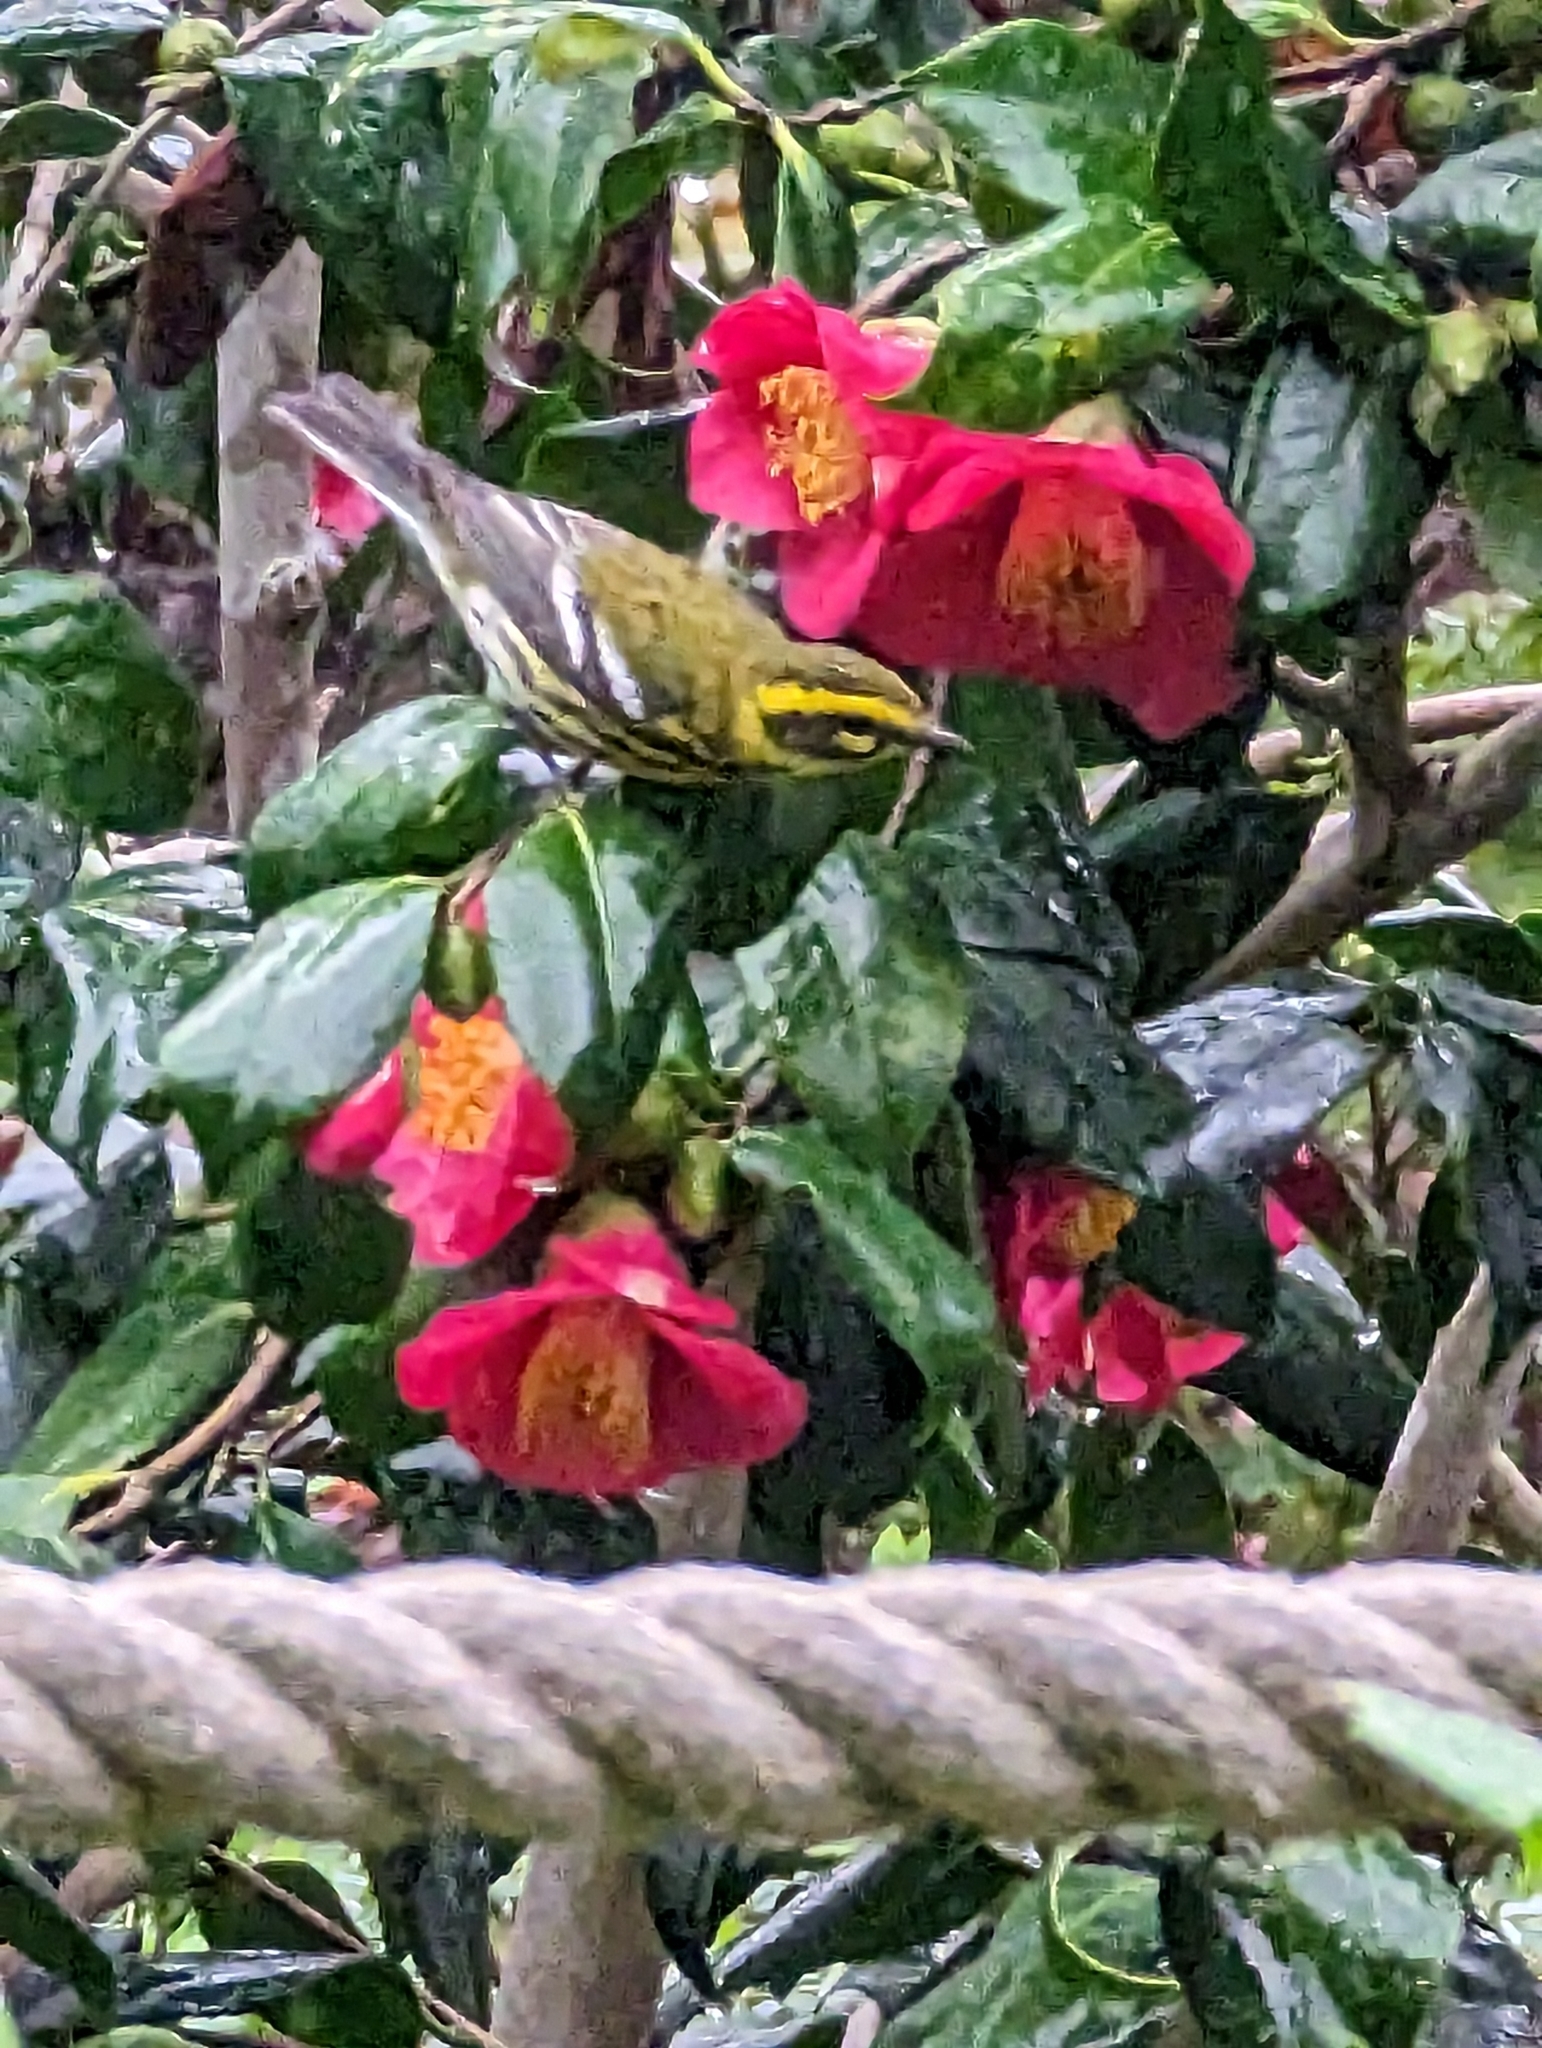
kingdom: Animalia
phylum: Chordata
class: Aves
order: Passeriformes
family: Parulidae
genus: Setophaga
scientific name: Setophaga townsendi
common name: Townsend's warbler
